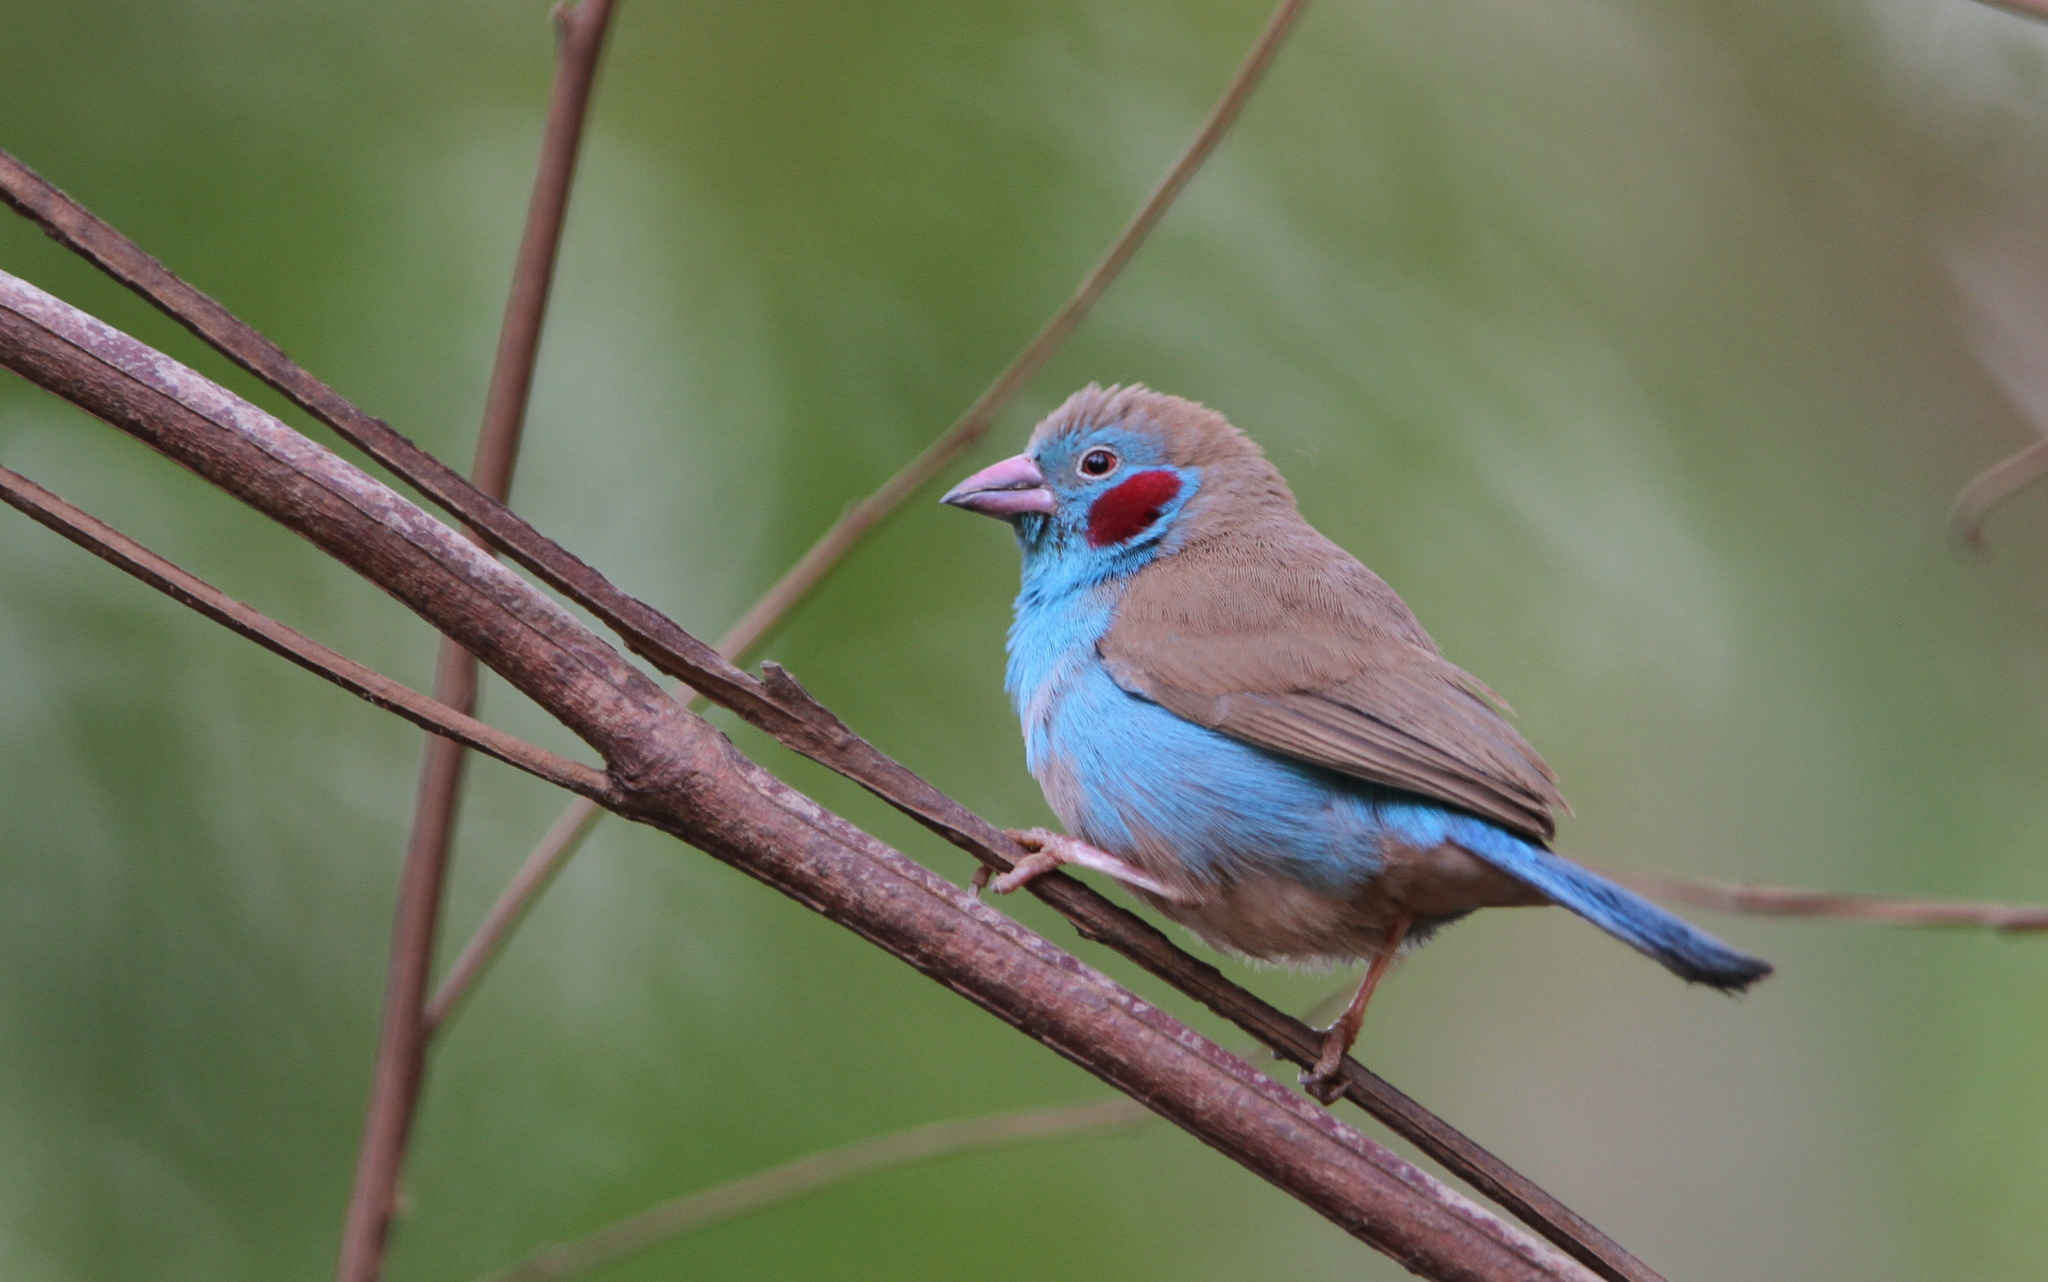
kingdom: Animalia
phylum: Chordata
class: Aves
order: Passeriformes
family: Estrildidae
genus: Uraeginthus
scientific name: Uraeginthus bengalus
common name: Red-cheeked cordon-bleu
